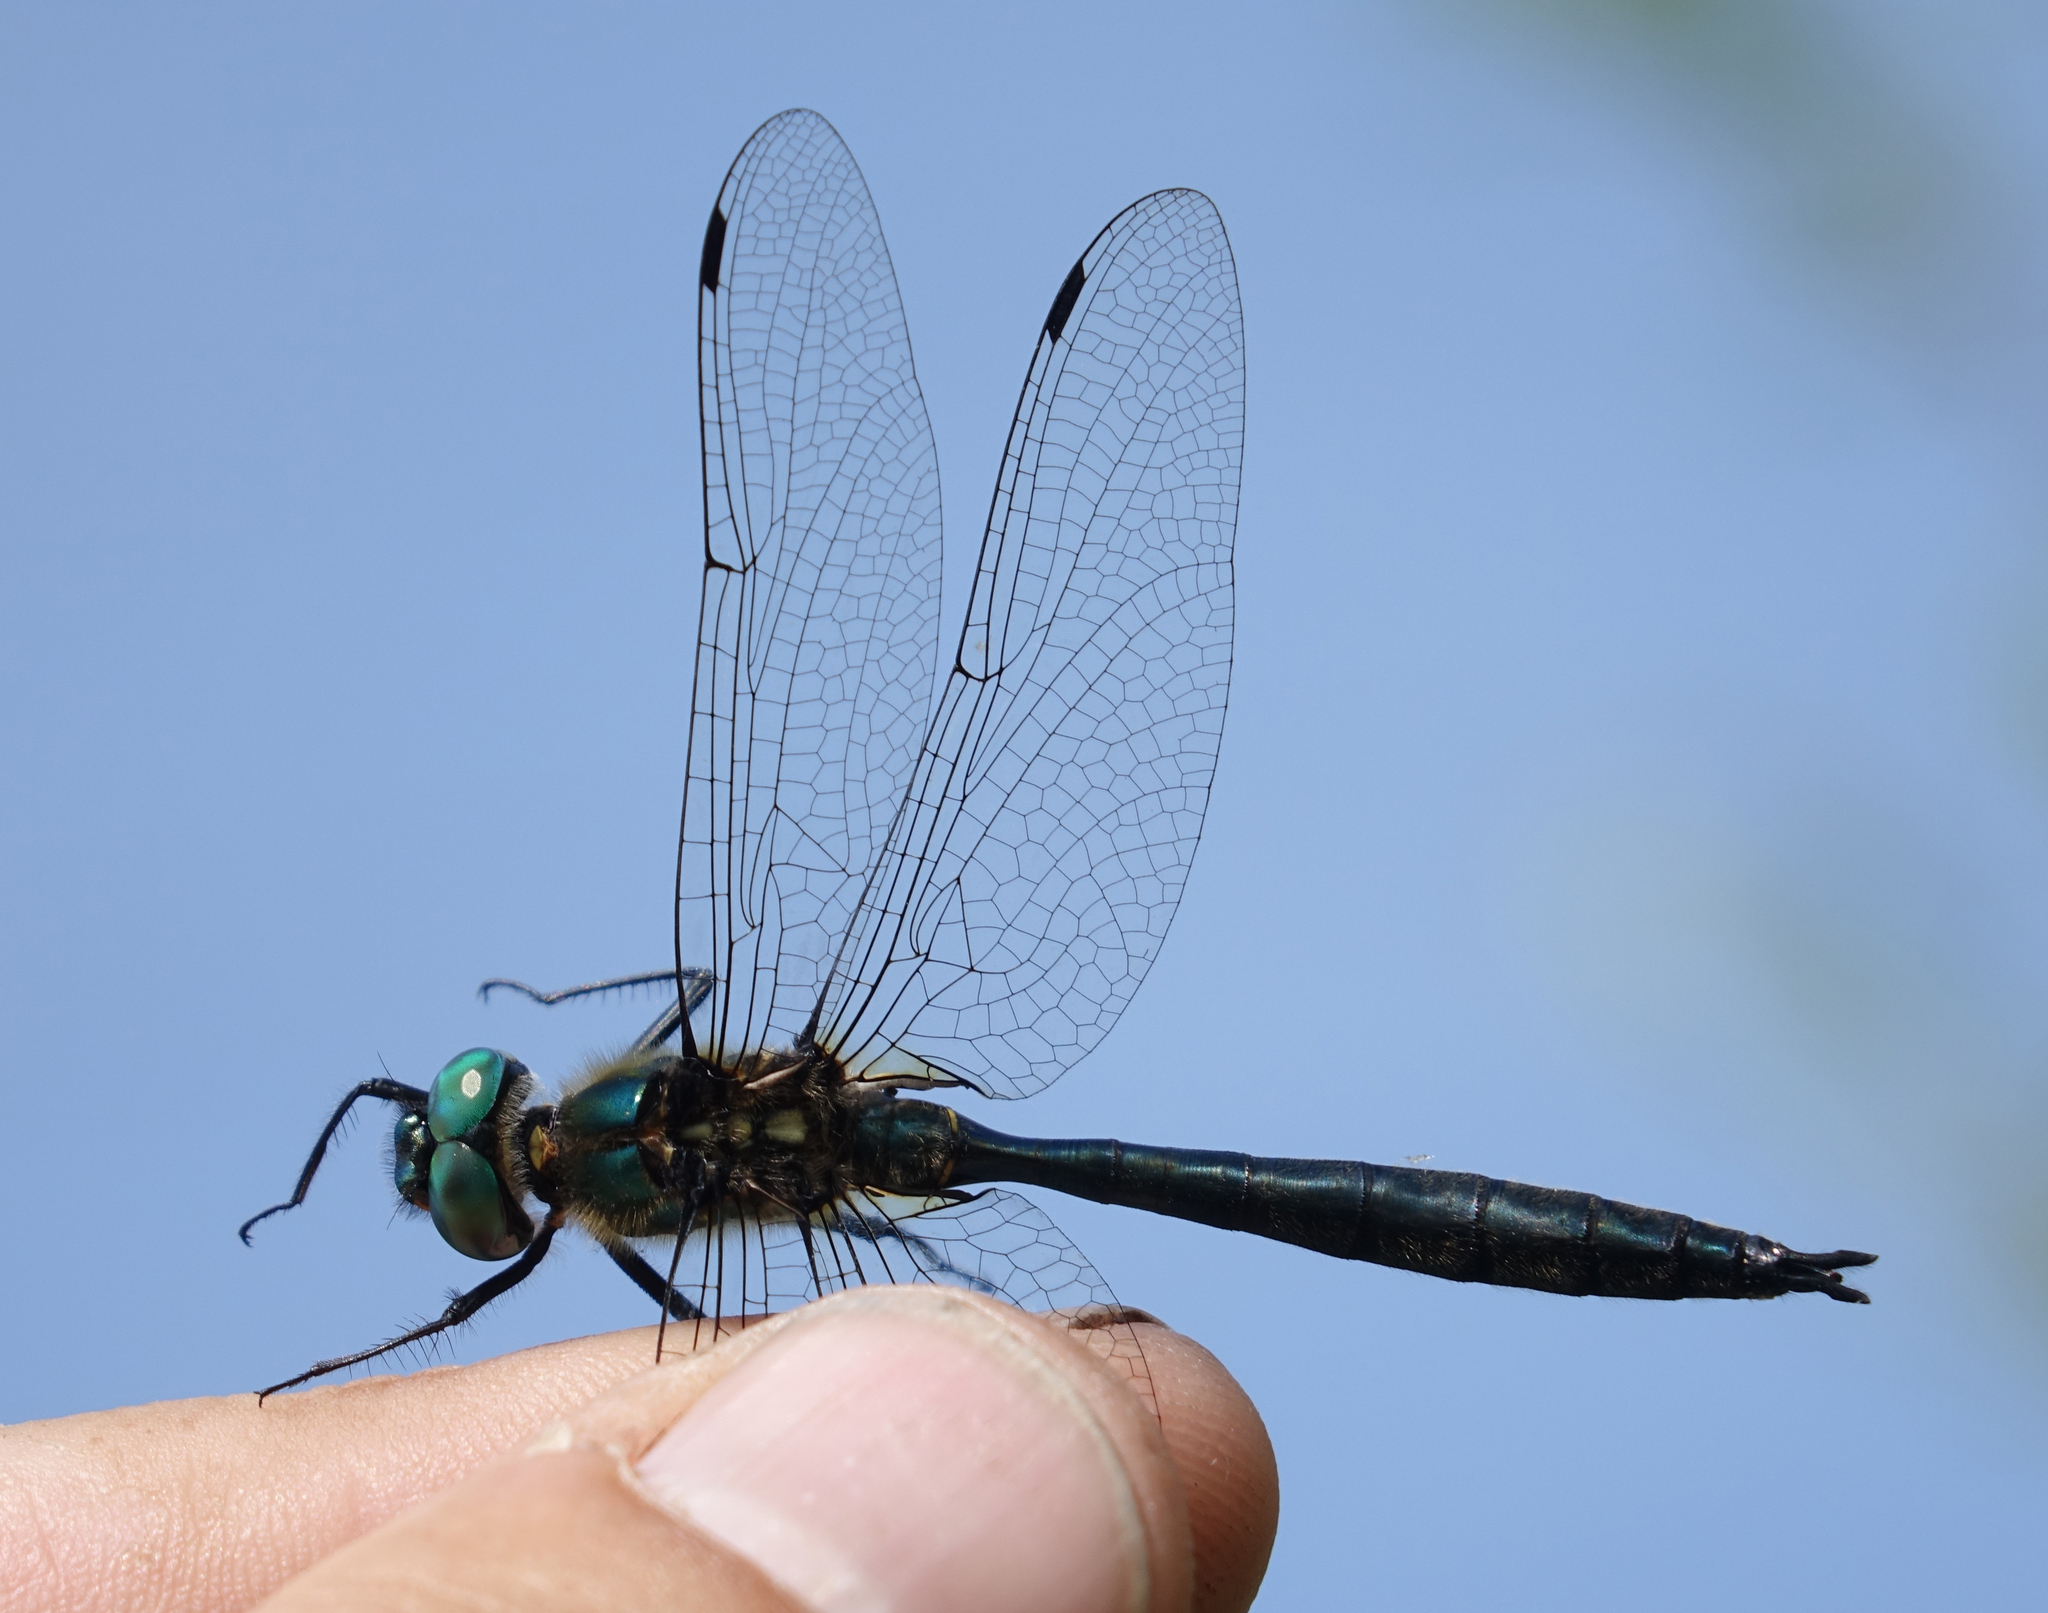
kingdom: Animalia
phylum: Arthropoda
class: Insecta
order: Odonata
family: Corduliidae
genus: Somatochlora
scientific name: Somatochlora graeseri
